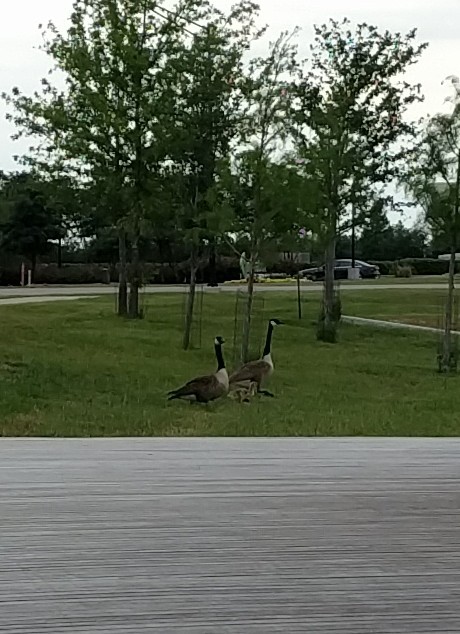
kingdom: Animalia
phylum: Chordata
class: Aves
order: Anseriformes
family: Anatidae
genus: Branta
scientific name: Branta canadensis
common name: Canada goose
